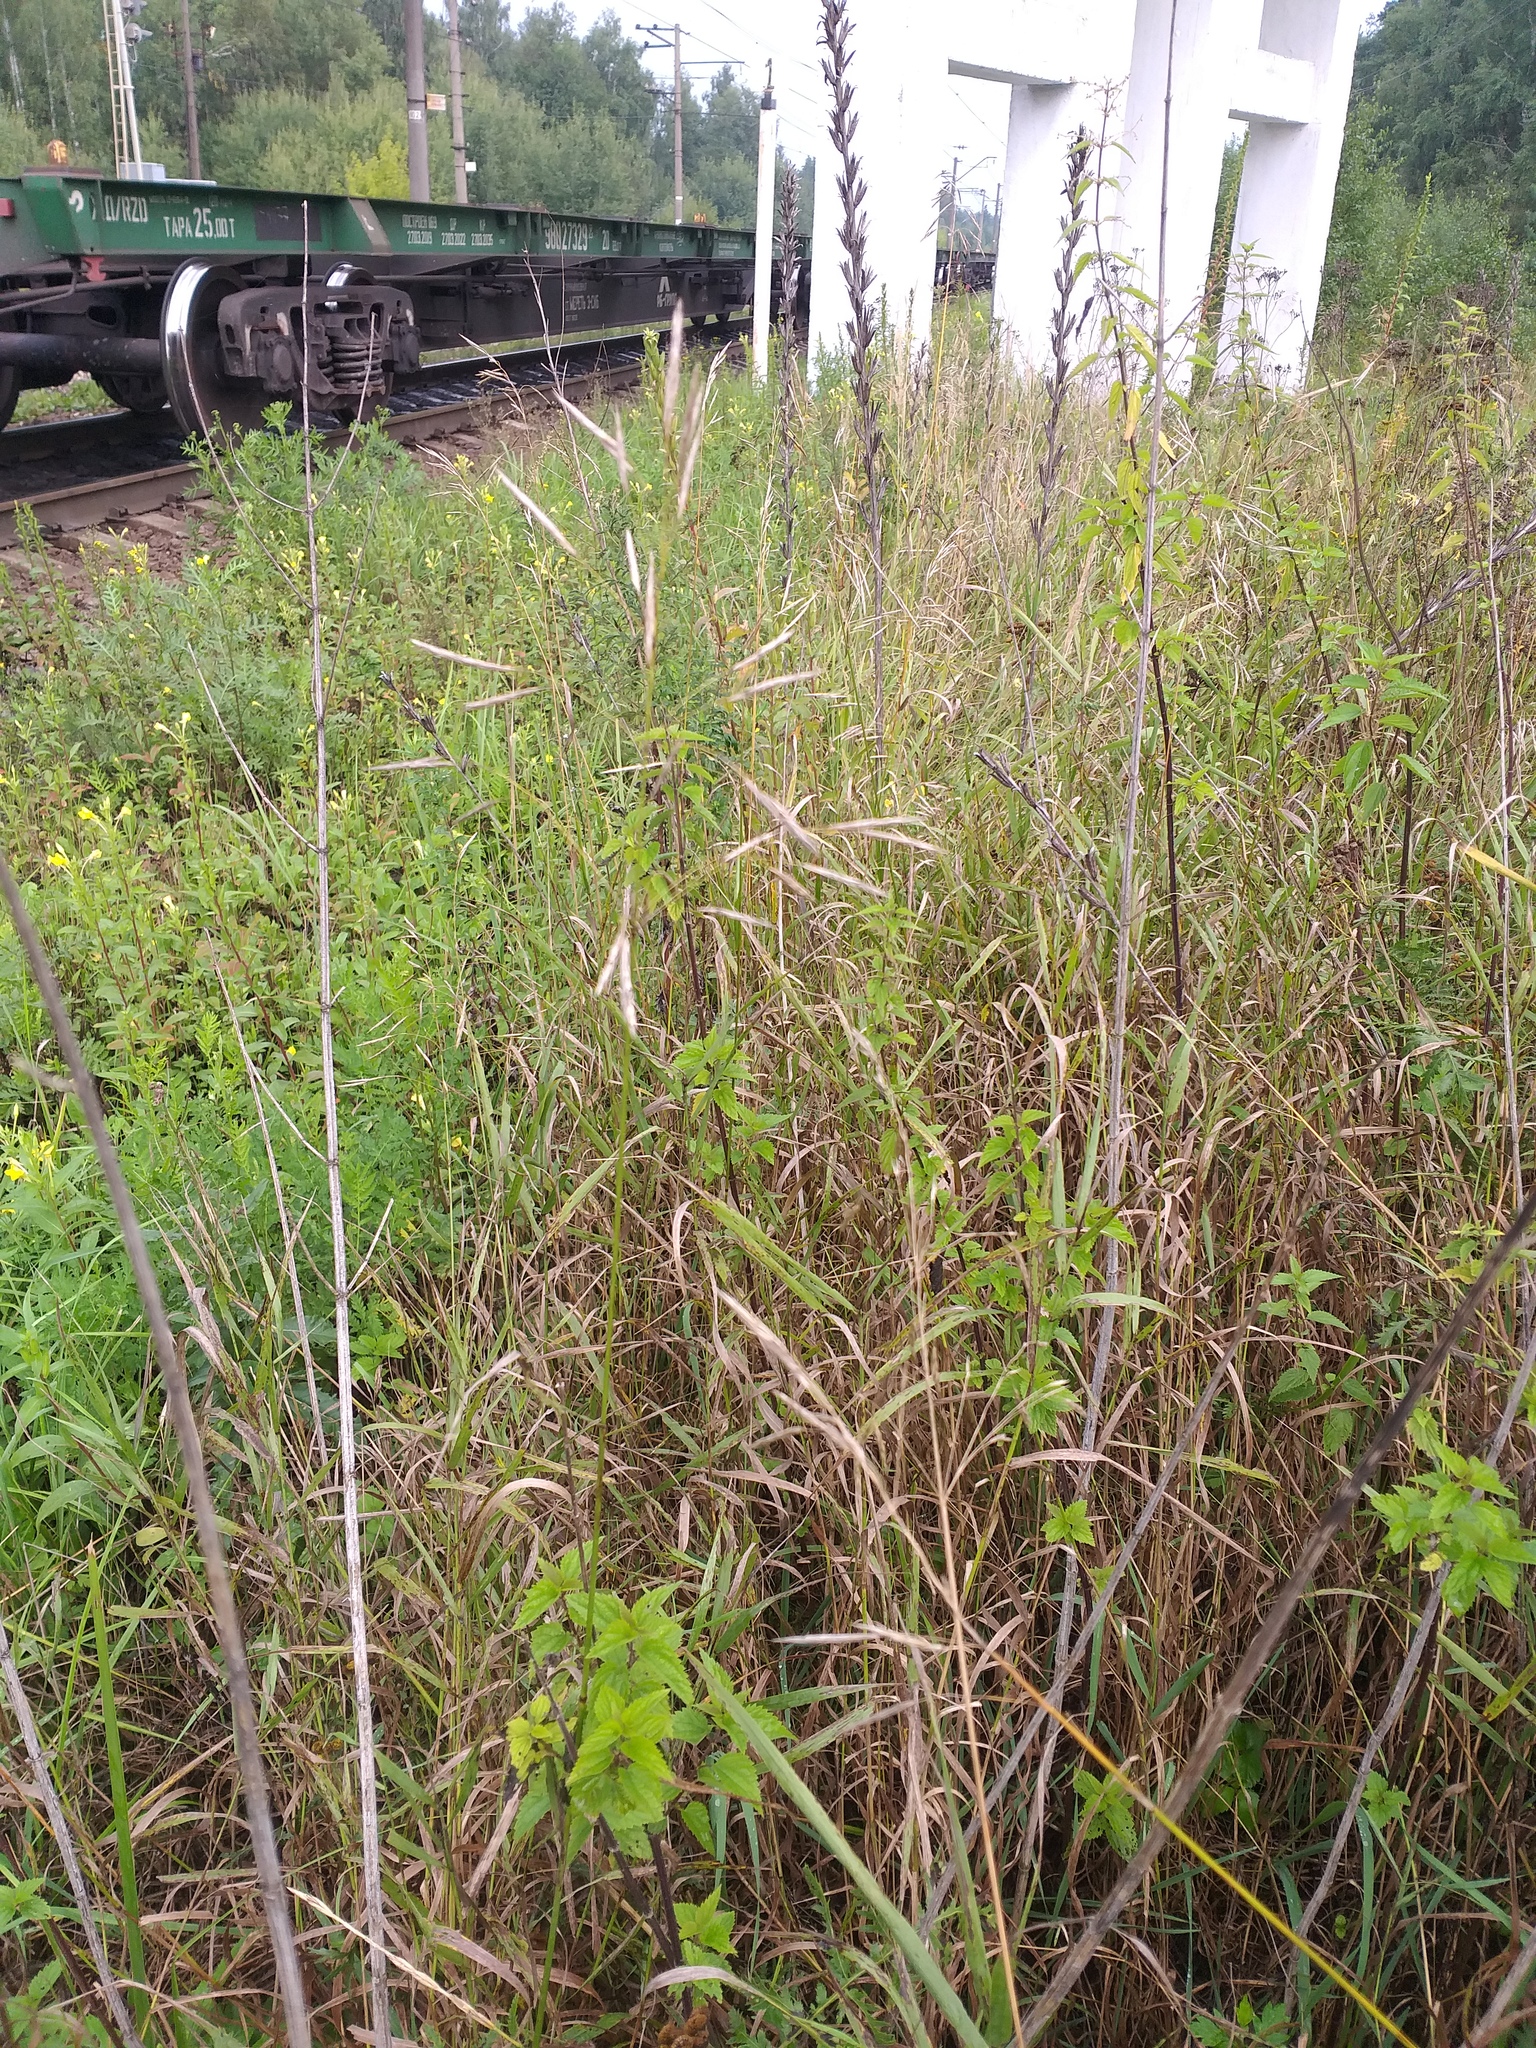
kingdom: Plantae
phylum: Tracheophyta
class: Liliopsida
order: Poales
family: Poaceae
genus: Bromus
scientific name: Bromus inermis
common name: Smooth brome
